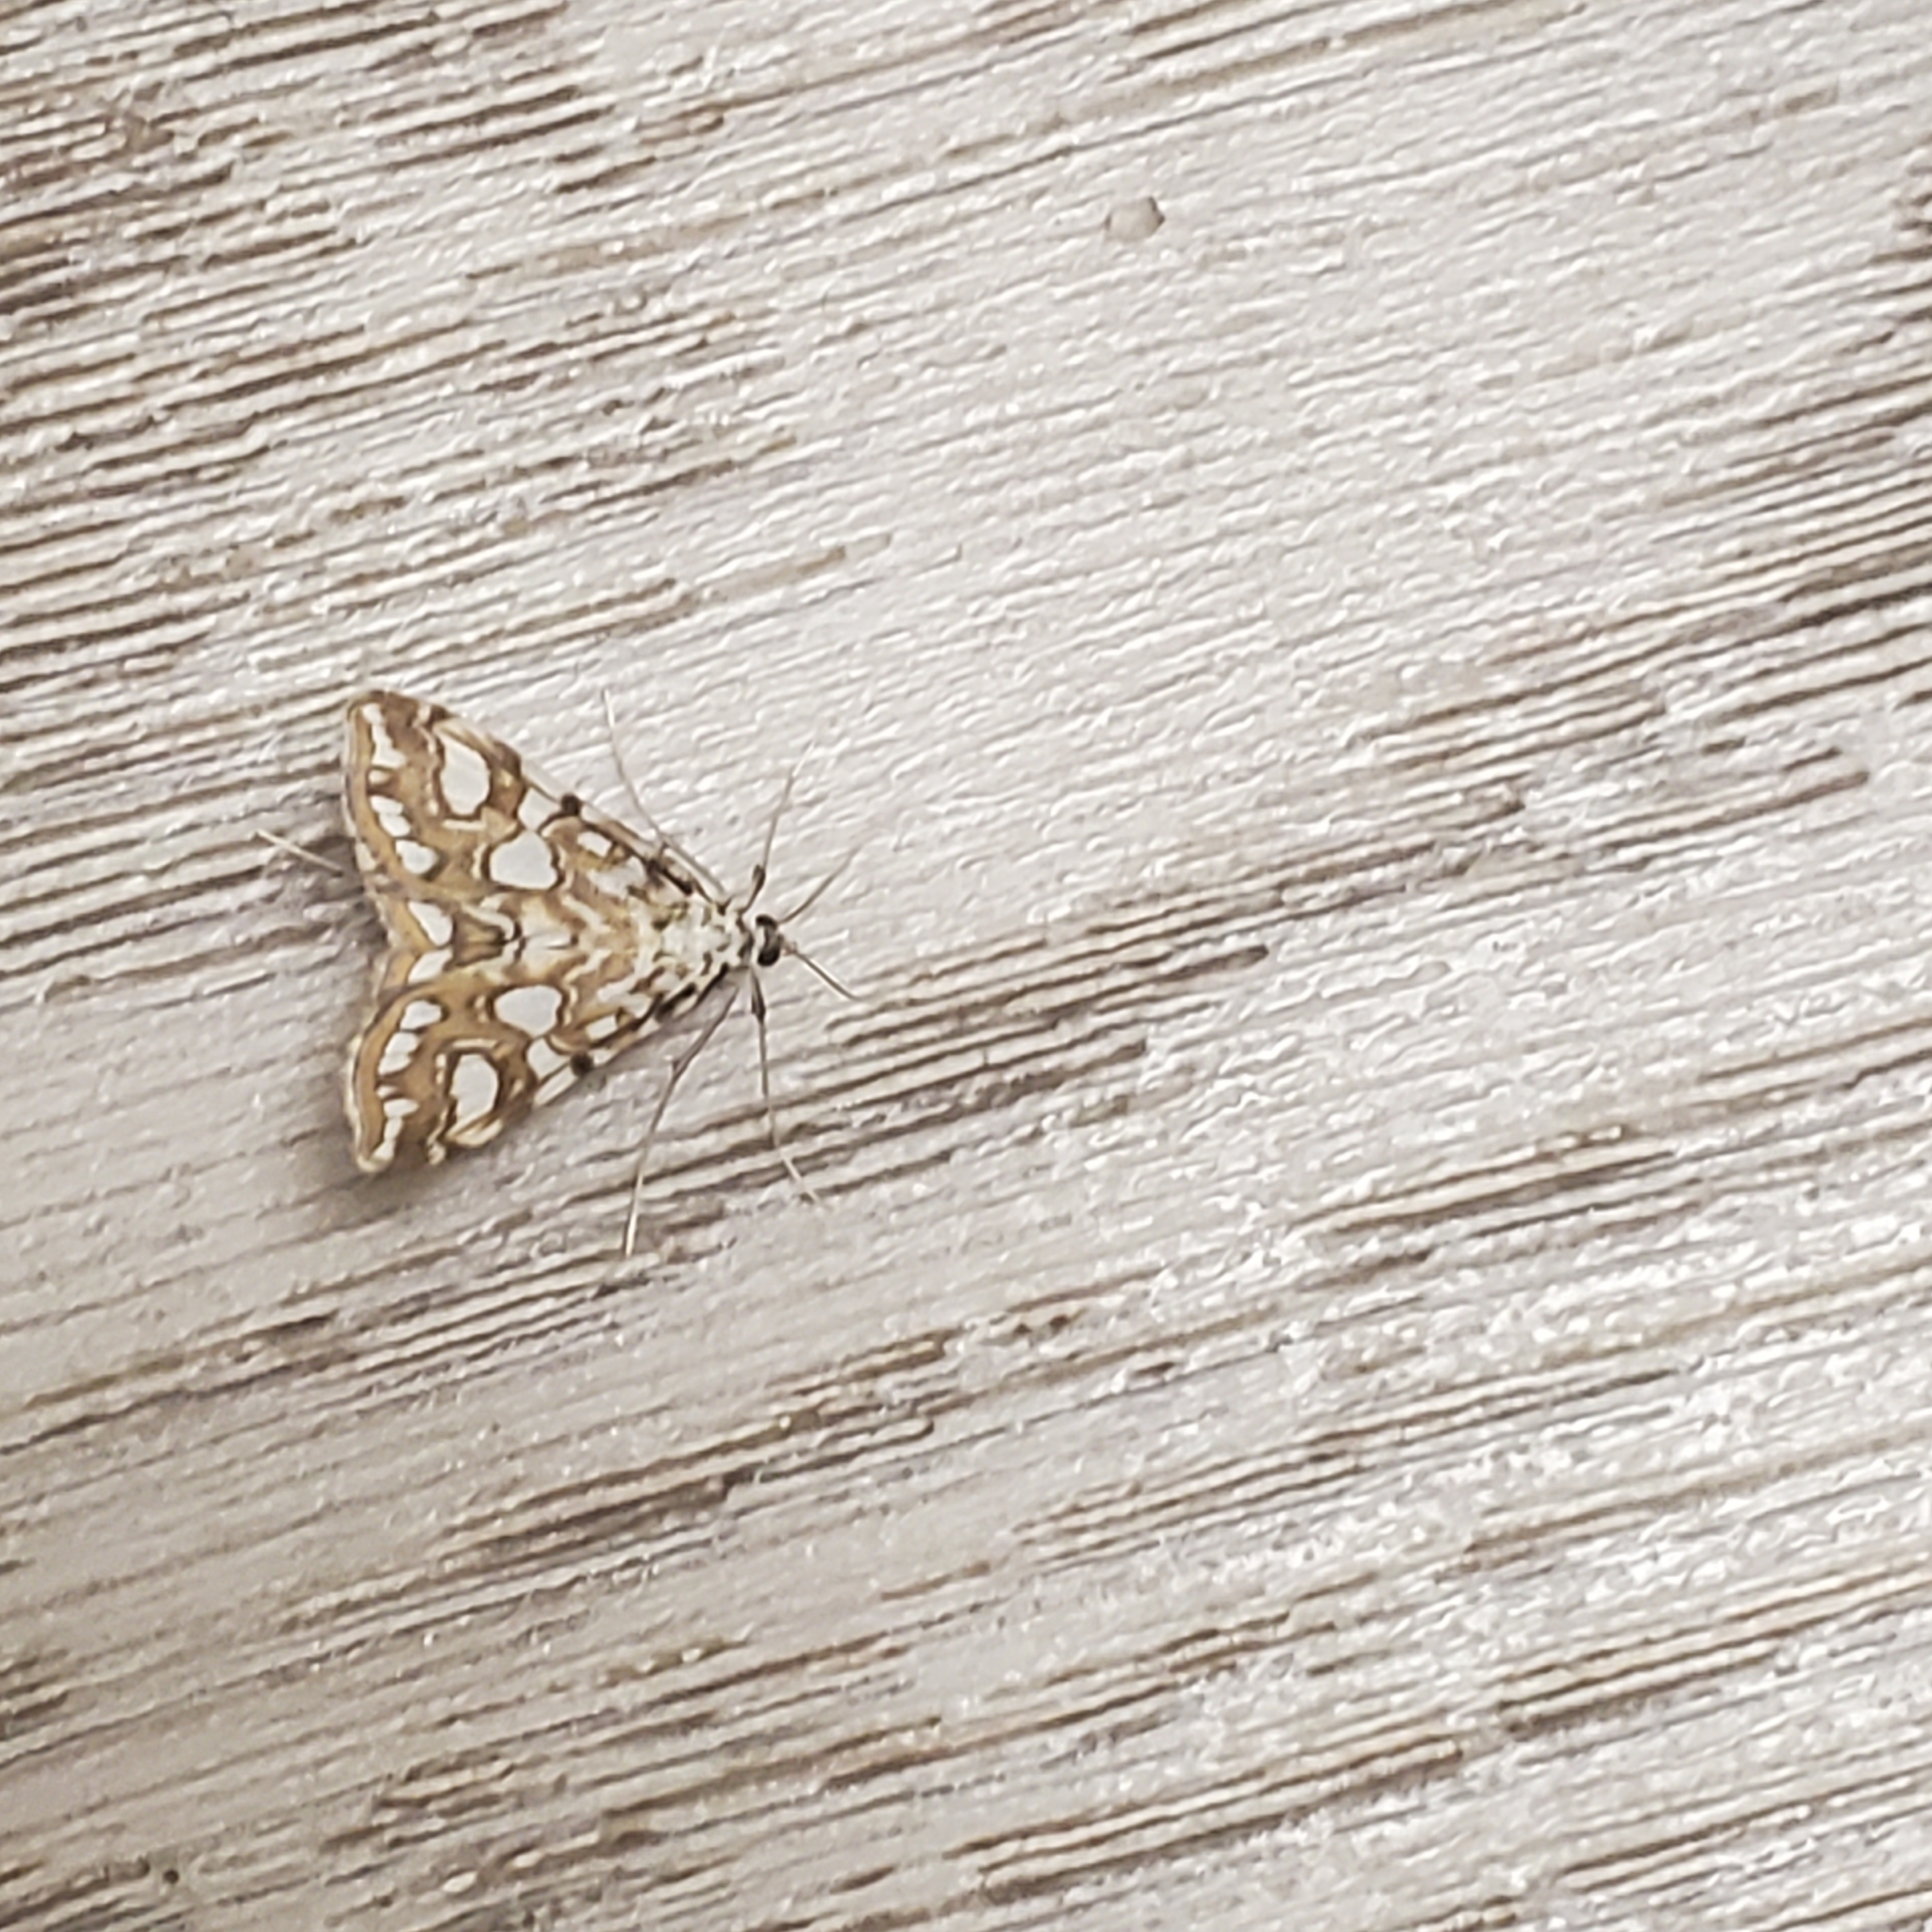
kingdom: Animalia
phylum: Arthropoda
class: Insecta
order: Lepidoptera
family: Crambidae
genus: Elophila
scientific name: Elophila nymphaeata
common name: Brown china-mark
